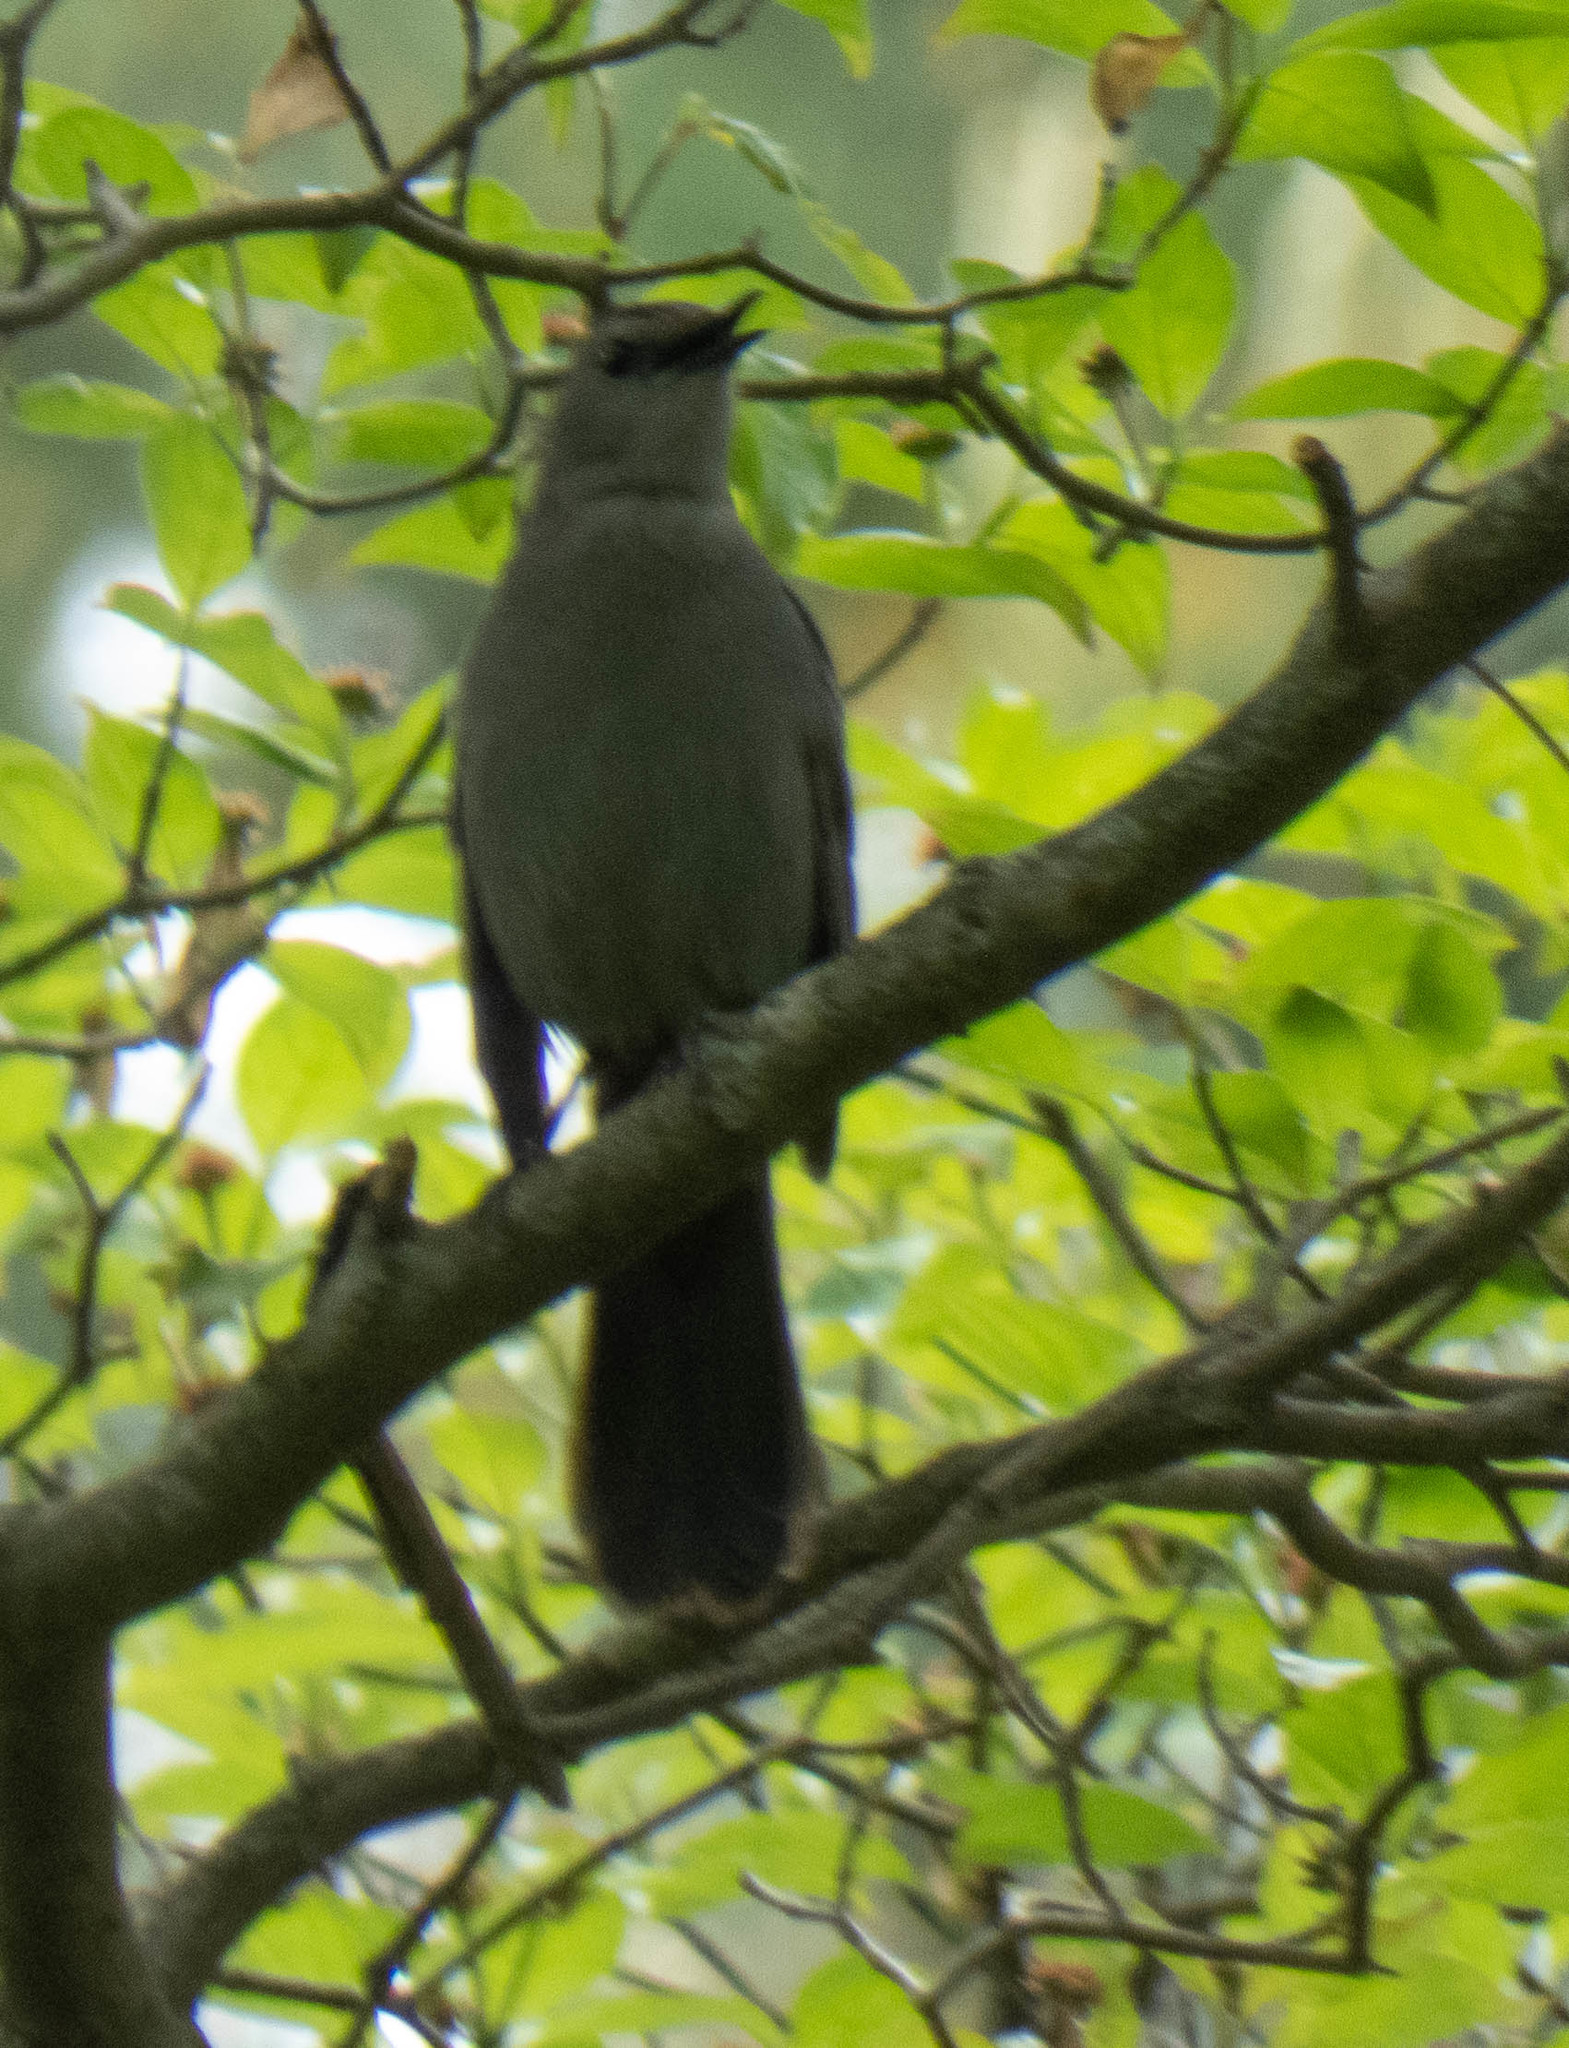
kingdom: Animalia
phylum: Chordata
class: Aves
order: Passeriformes
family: Mimidae
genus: Dumetella
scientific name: Dumetella carolinensis
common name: Gray catbird
